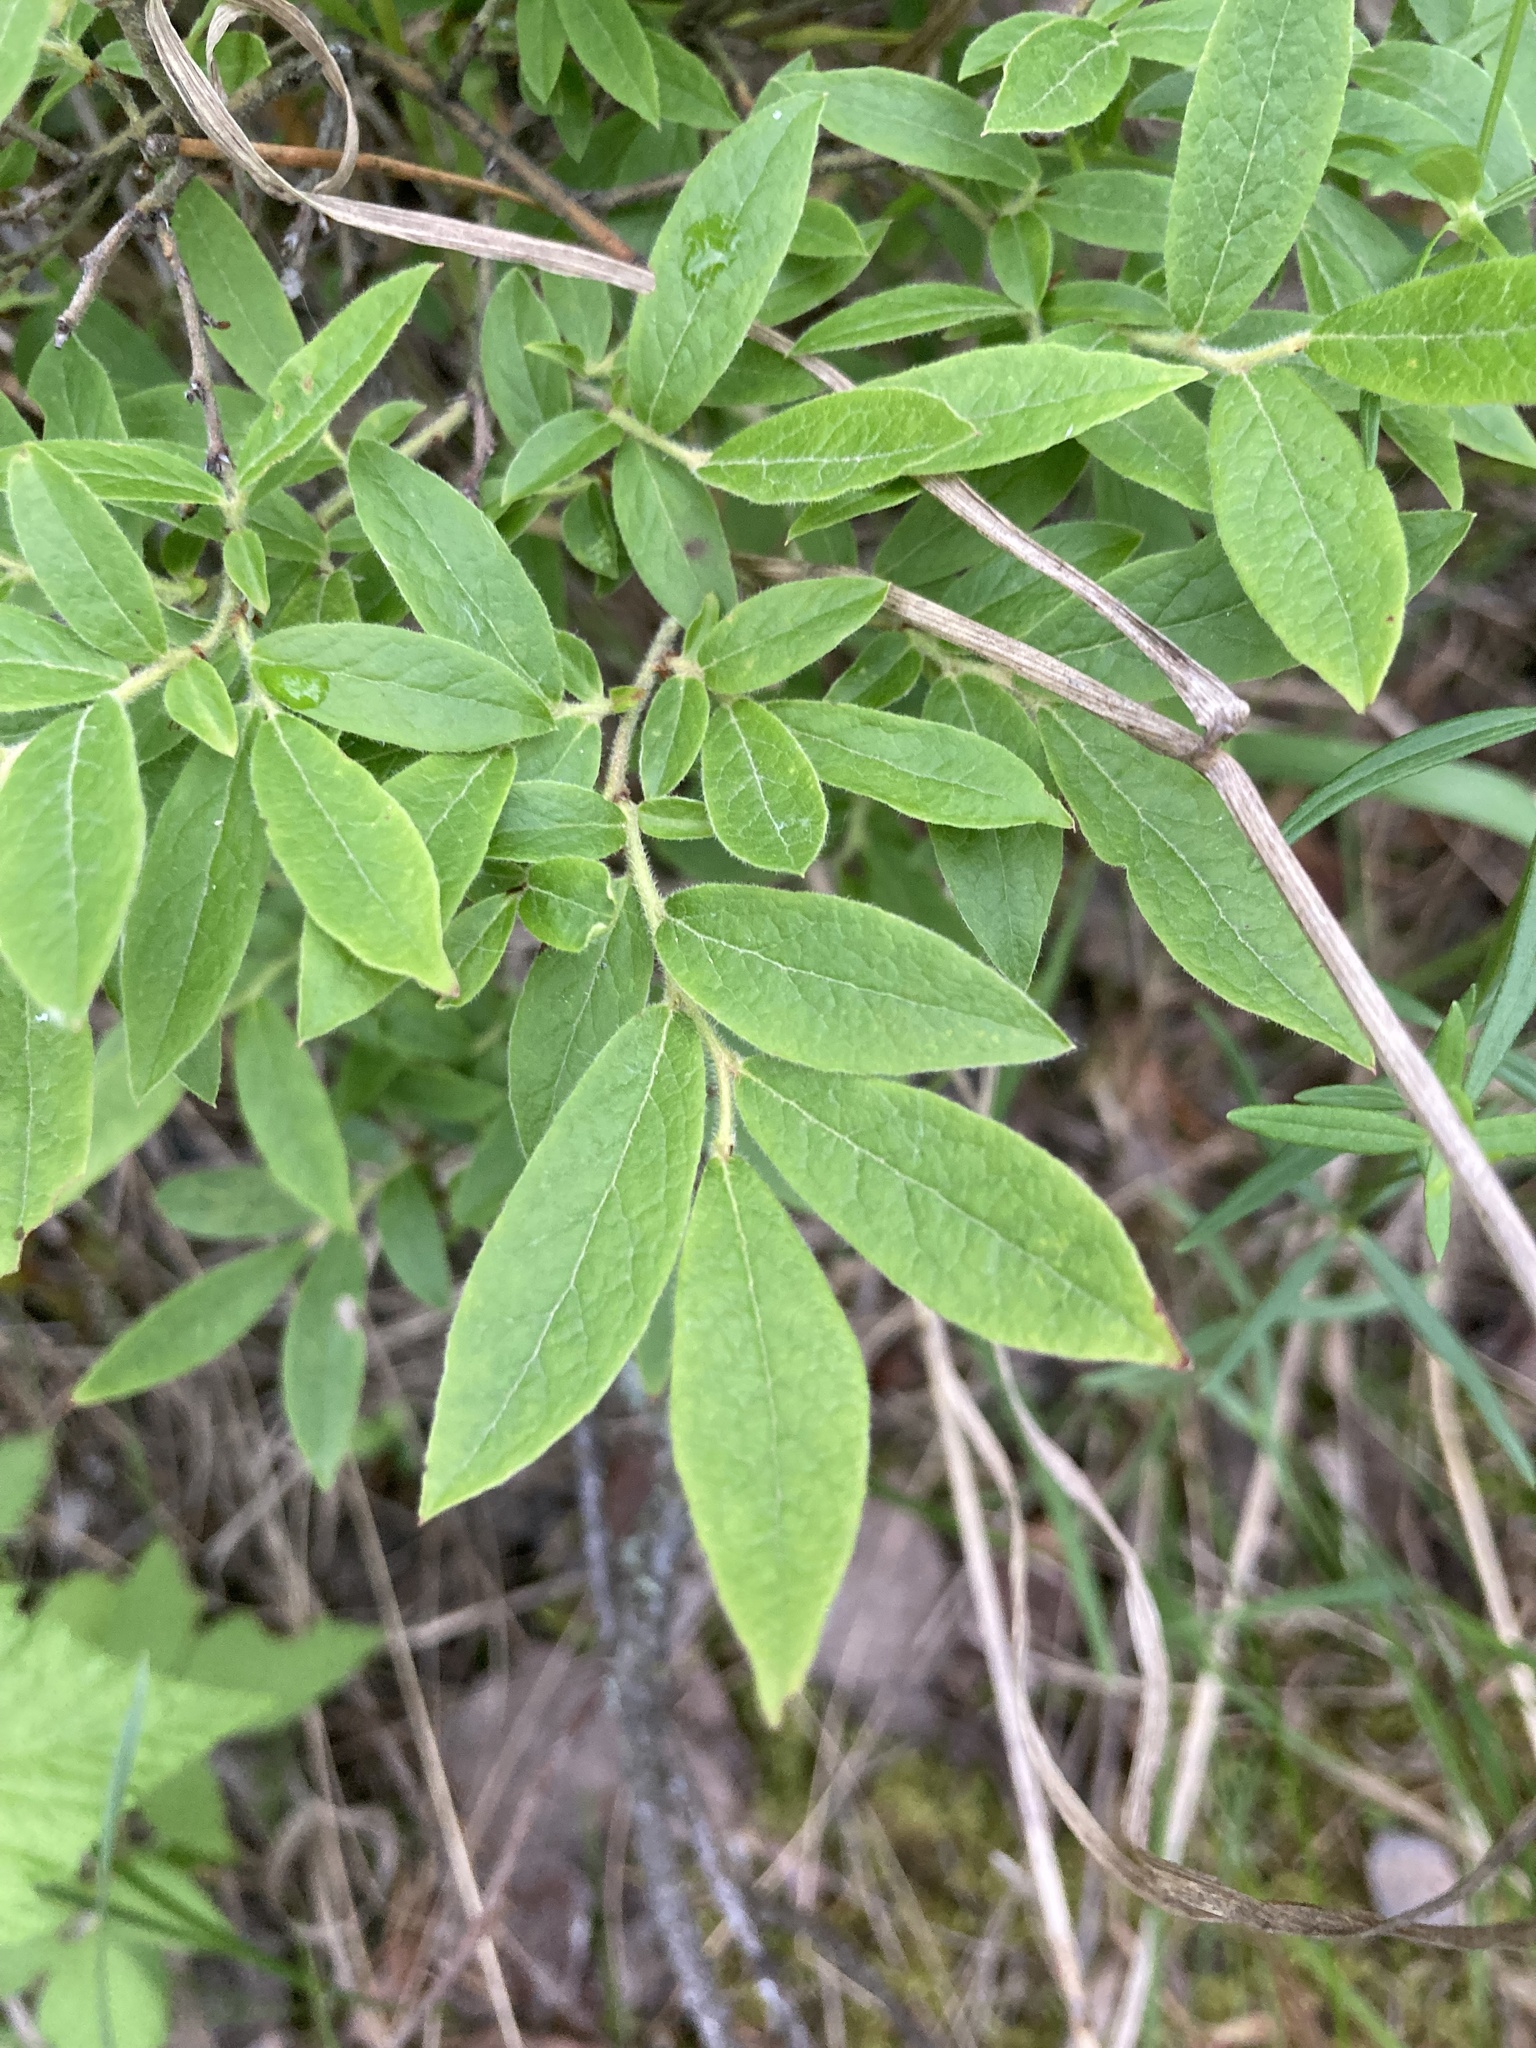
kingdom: Plantae
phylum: Tracheophyta
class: Magnoliopsida
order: Ericales
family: Ericaceae
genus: Vaccinium
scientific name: Vaccinium myrtilloides
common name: Canada blueberry
